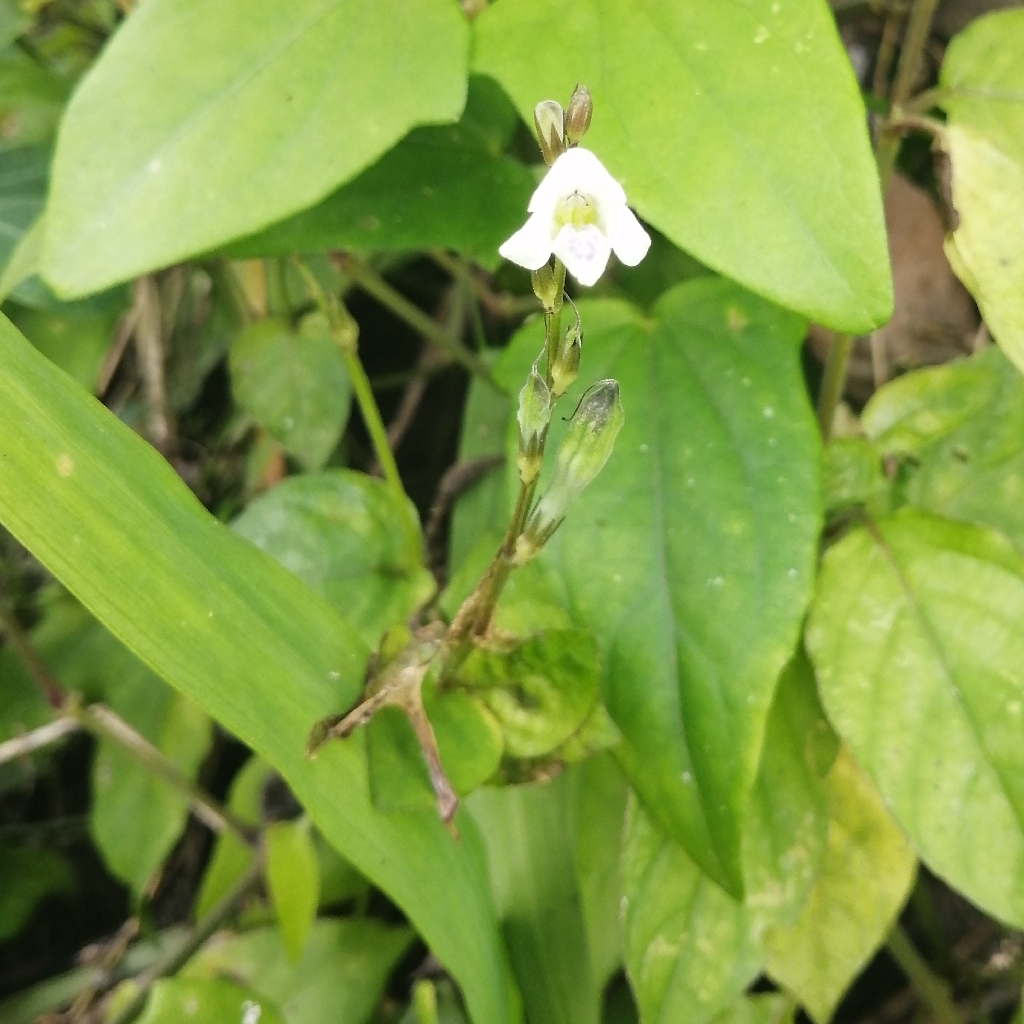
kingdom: Plantae
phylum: Tracheophyta
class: Magnoliopsida
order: Lamiales
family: Acanthaceae
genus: Asystasia
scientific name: Asystasia intrusa
